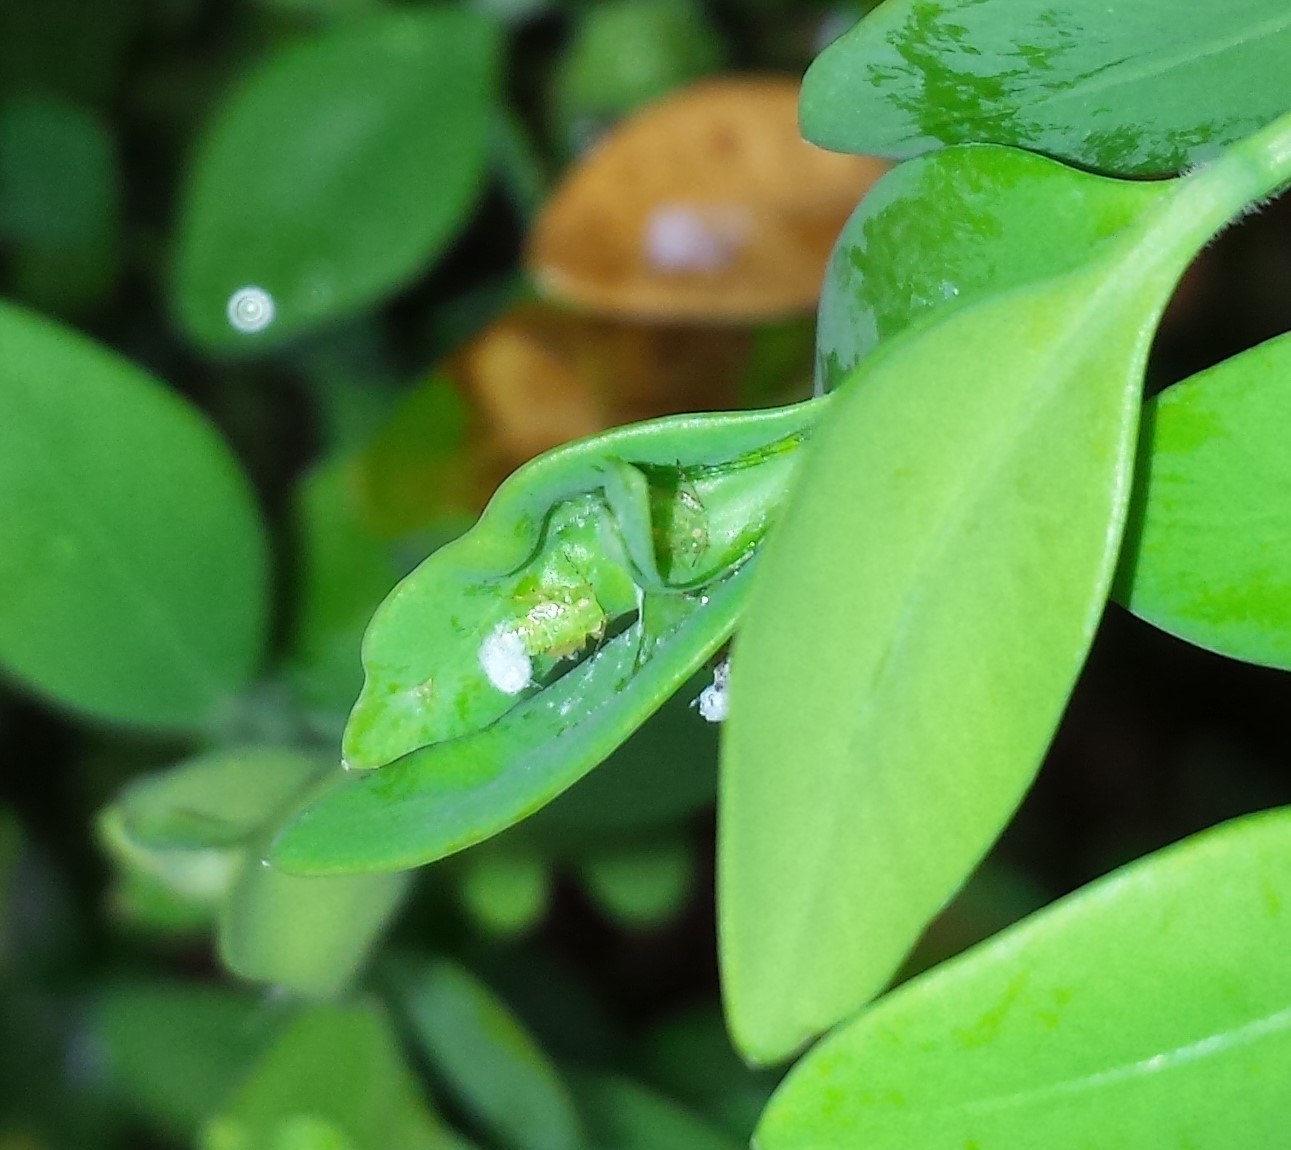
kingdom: Animalia
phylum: Arthropoda
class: Insecta
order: Hemiptera
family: Psyllidae
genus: Psylla
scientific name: Psylla buxi
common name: Boxwood psyllid
